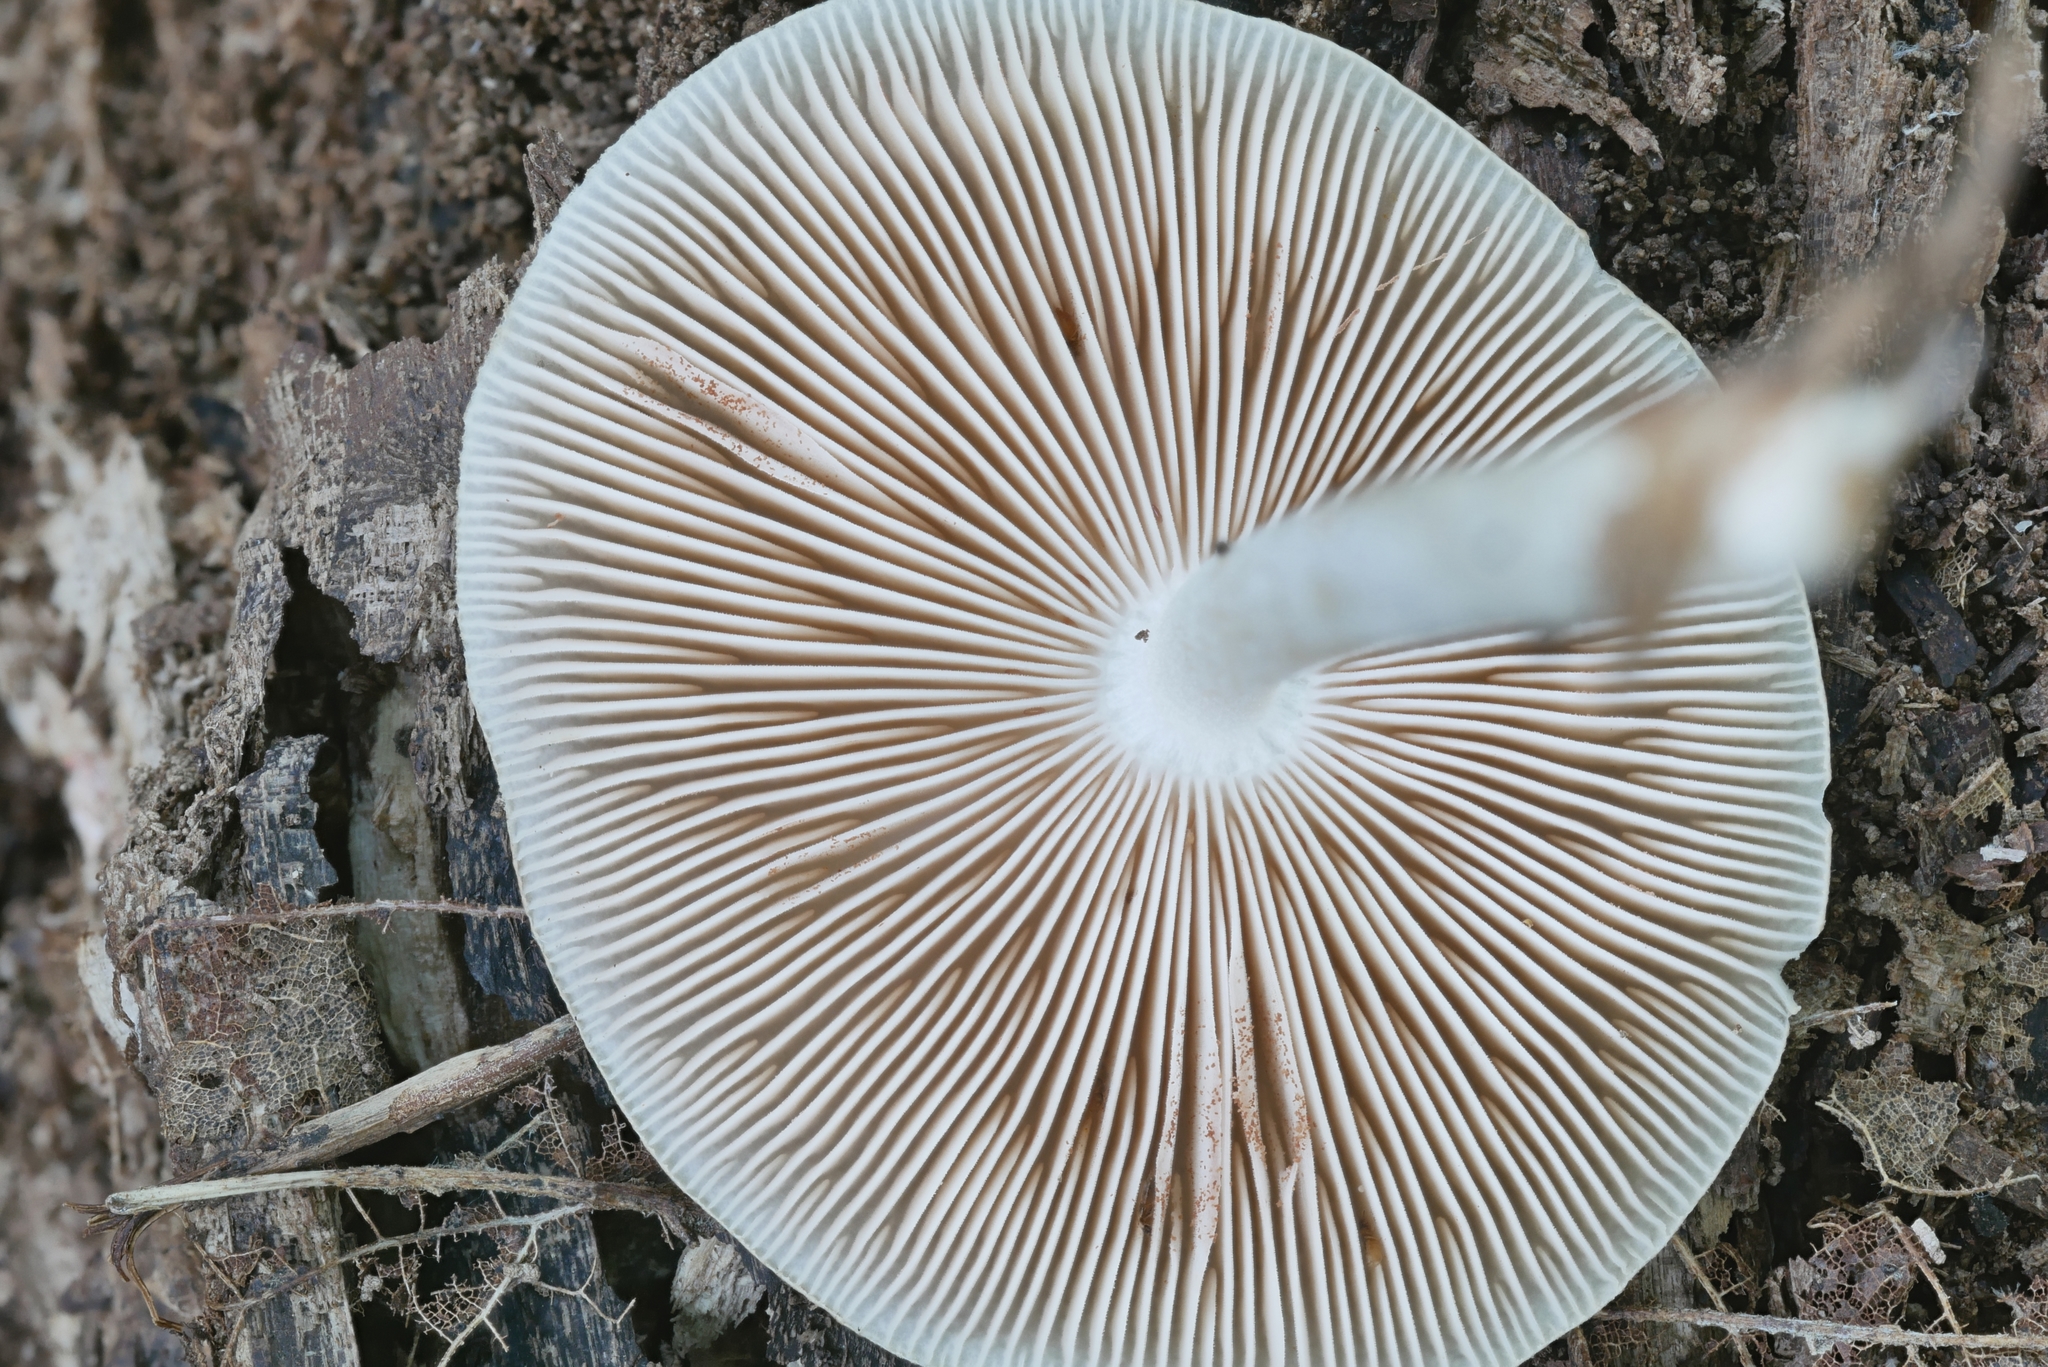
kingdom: Fungi
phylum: Basidiomycota
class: Agaricomycetes
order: Agaricales
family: Pluteaceae
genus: Pluteus
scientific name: Pluteus hongoi
